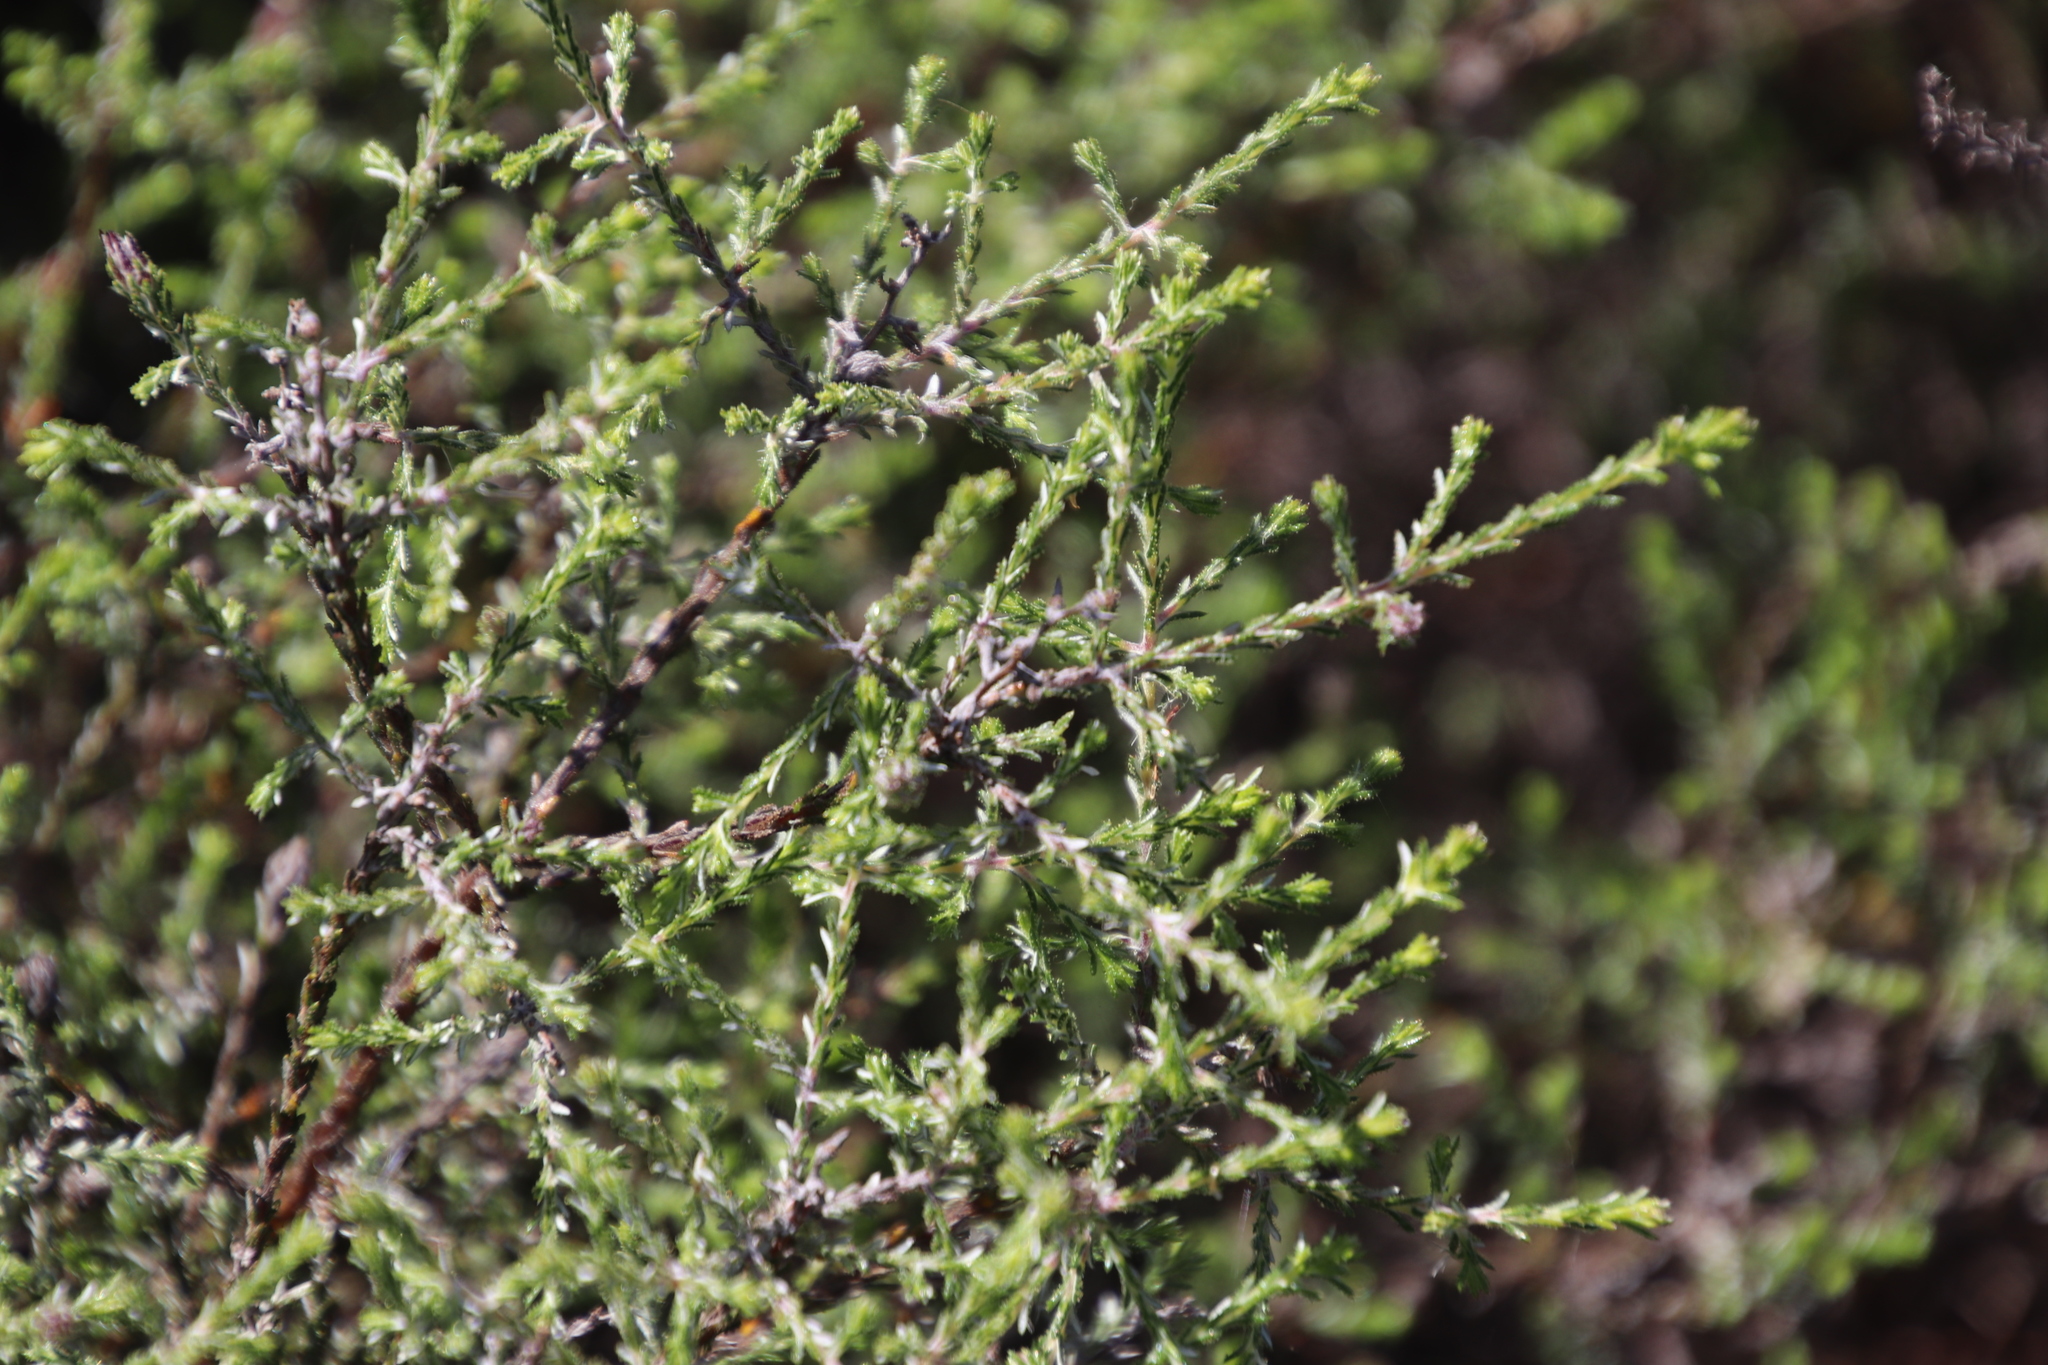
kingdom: Plantae
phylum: Tracheophyta
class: Magnoliopsida
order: Asterales
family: Asteraceae
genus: Myrovernix
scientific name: Myrovernix scaber
